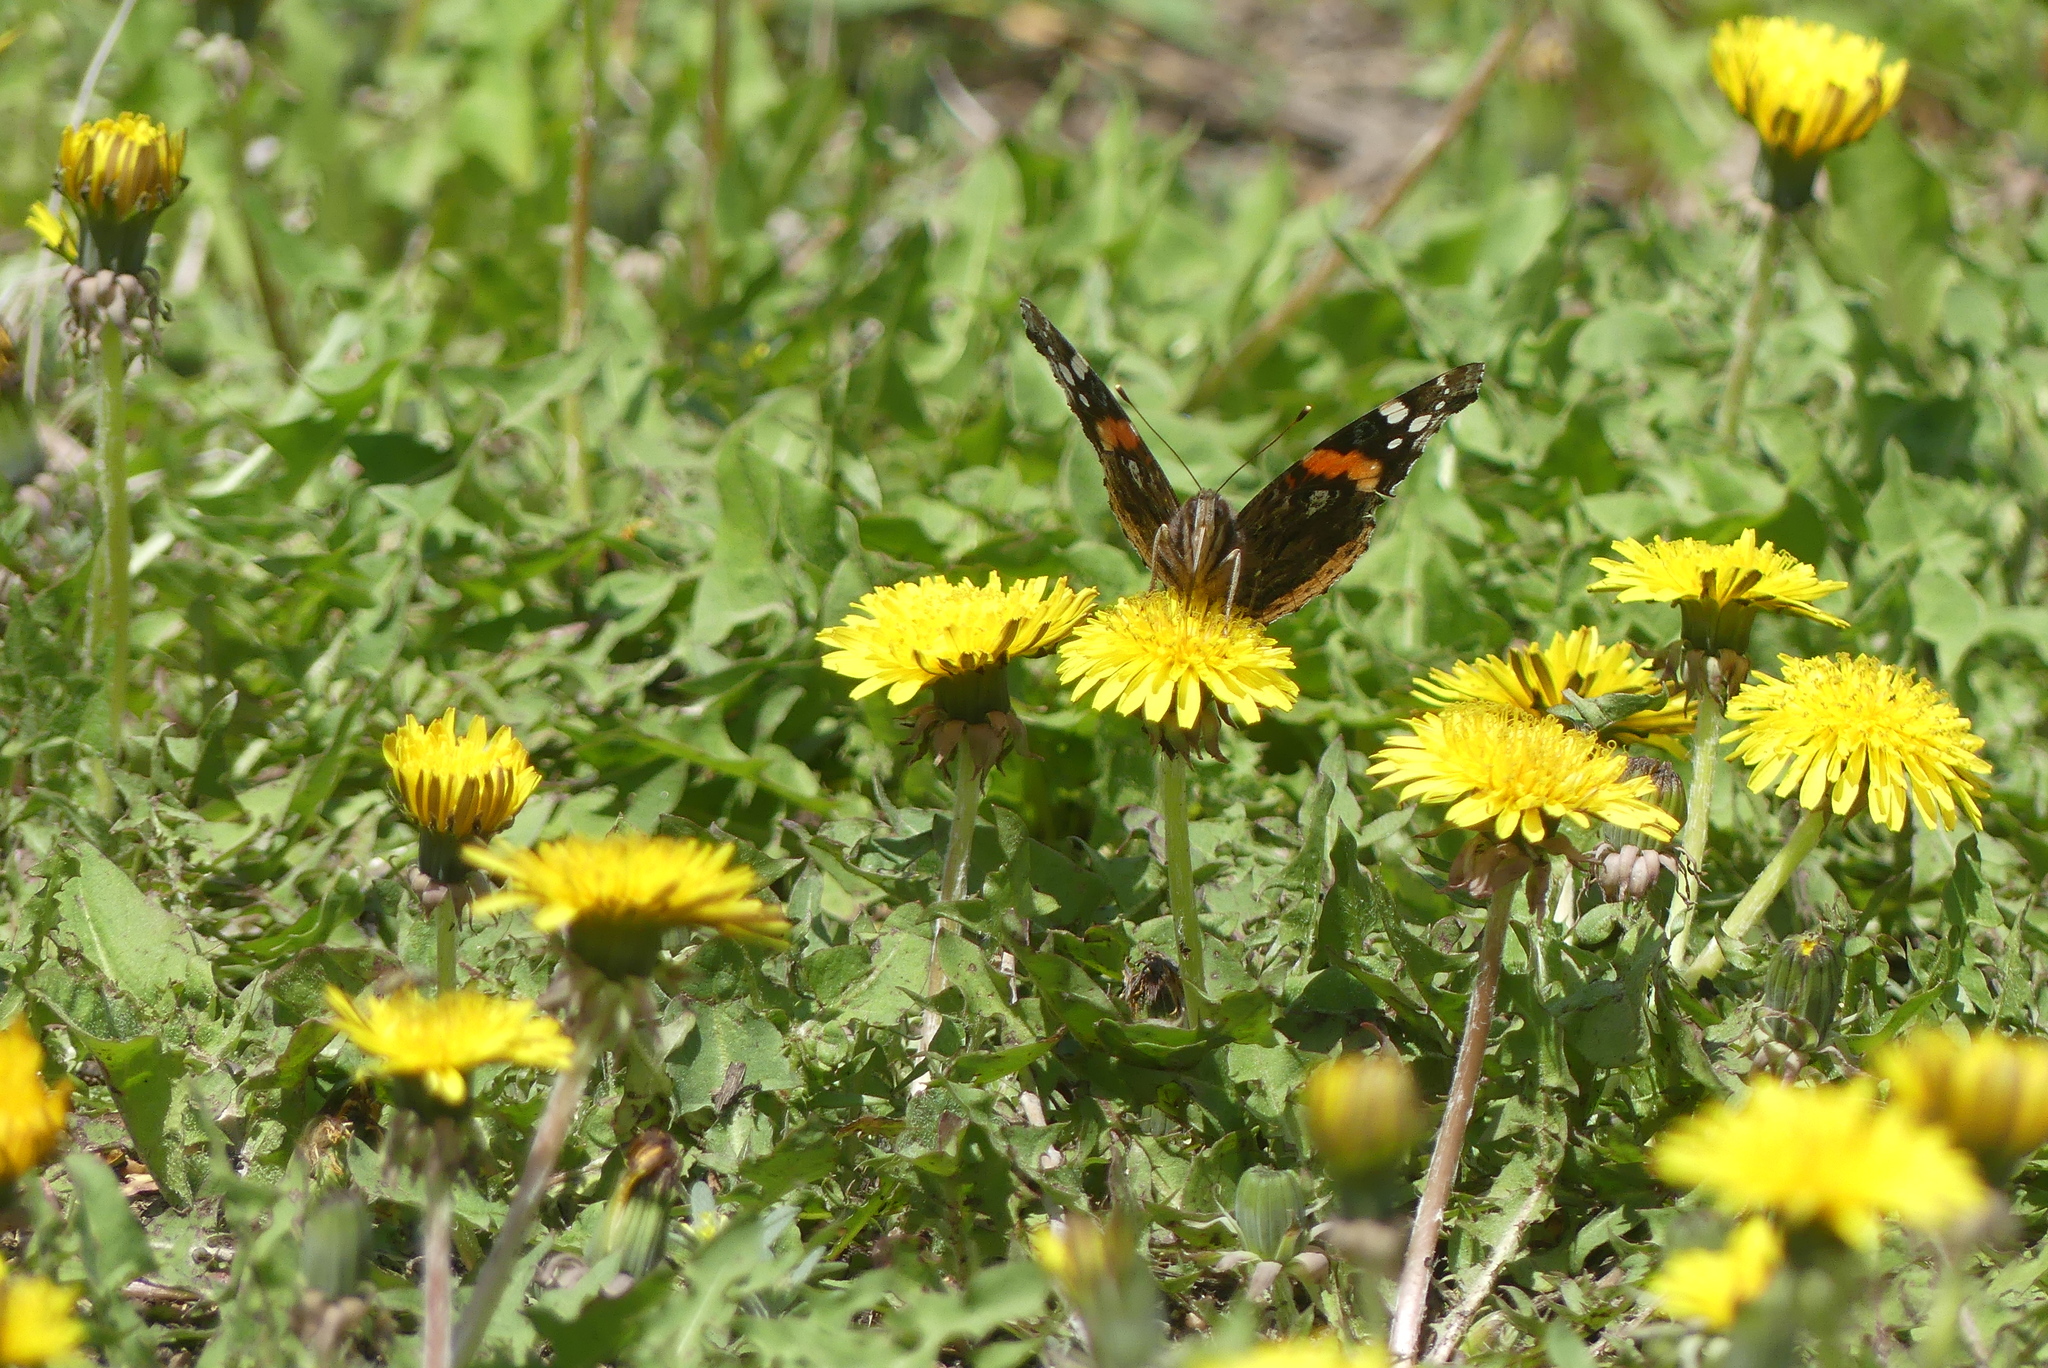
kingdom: Animalia
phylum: Arthropoda
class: Insecta
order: Lepidoptera
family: Nymphalidae
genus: Vanessa
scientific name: Vanessa atalanta
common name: Red admiral
